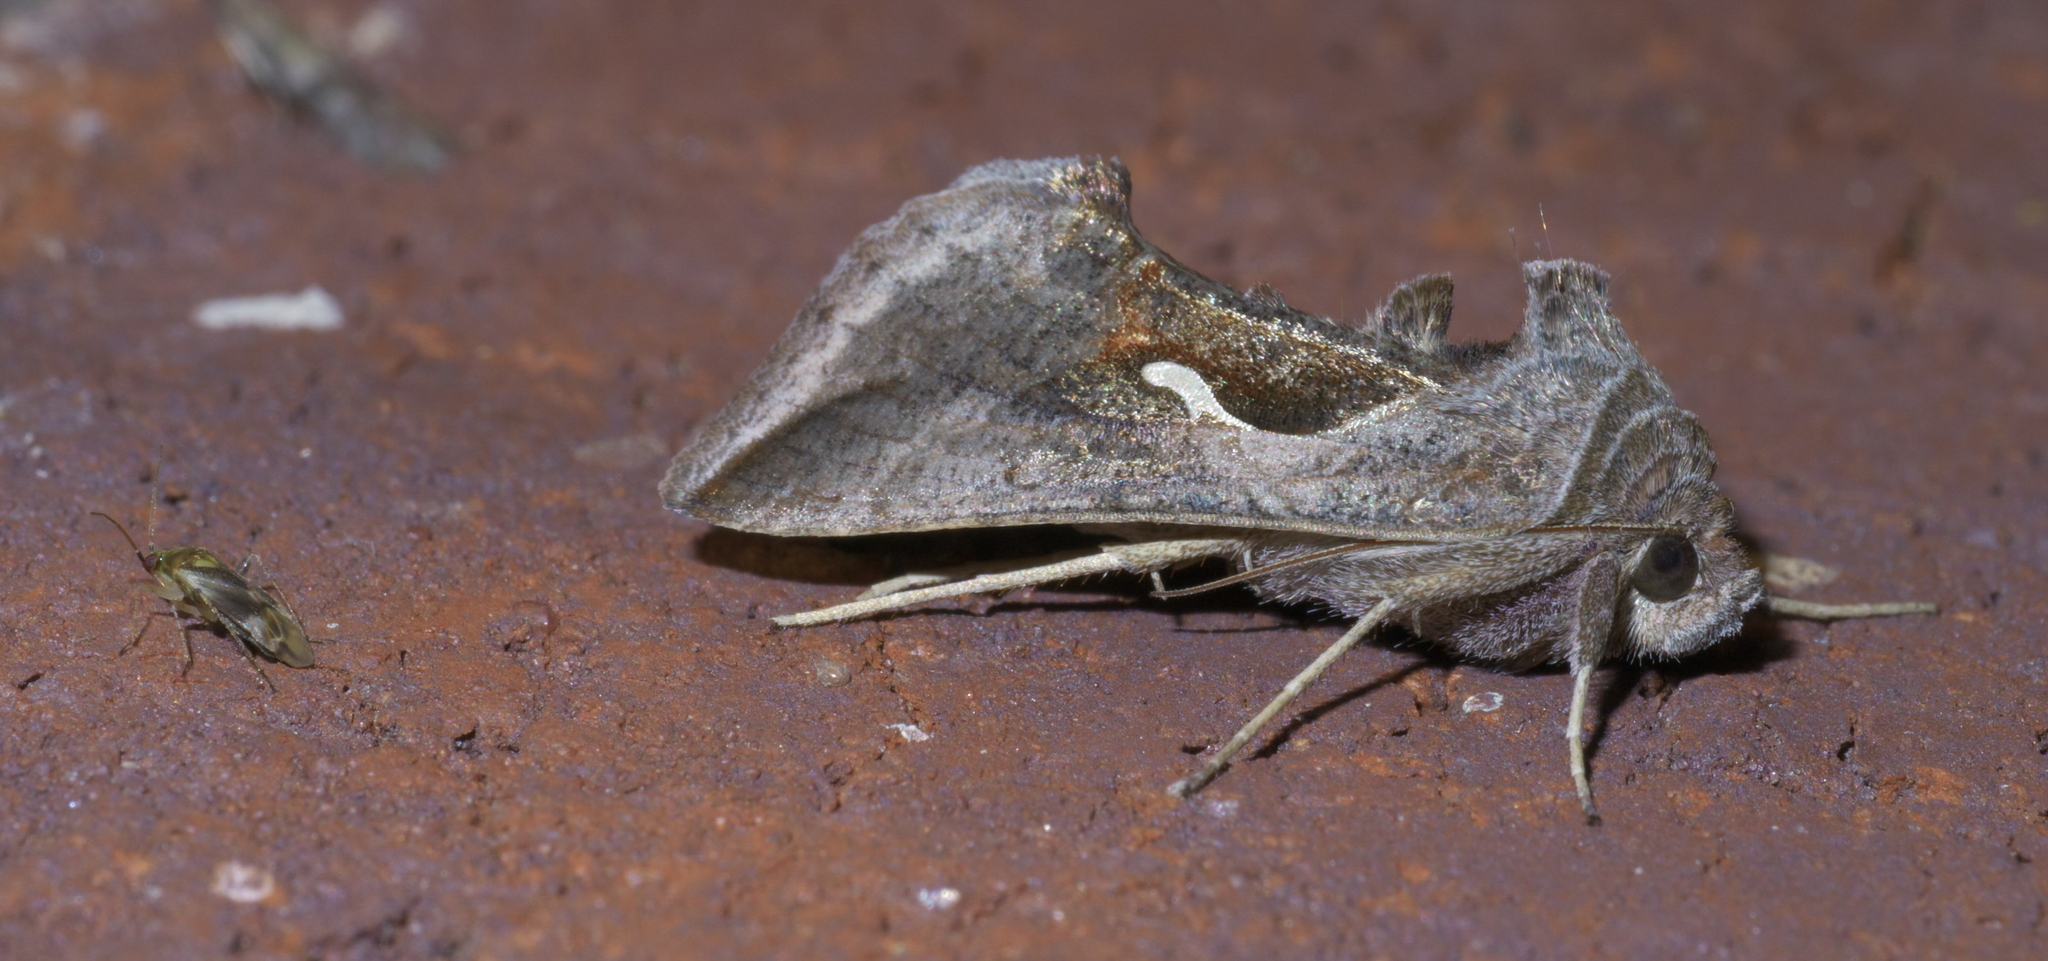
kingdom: Animalia
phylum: Arthropoda
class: Insecta
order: Lepidoptera
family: Noctuidae
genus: Anagrapha
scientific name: Anagrapha falcifera
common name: Celery looper
